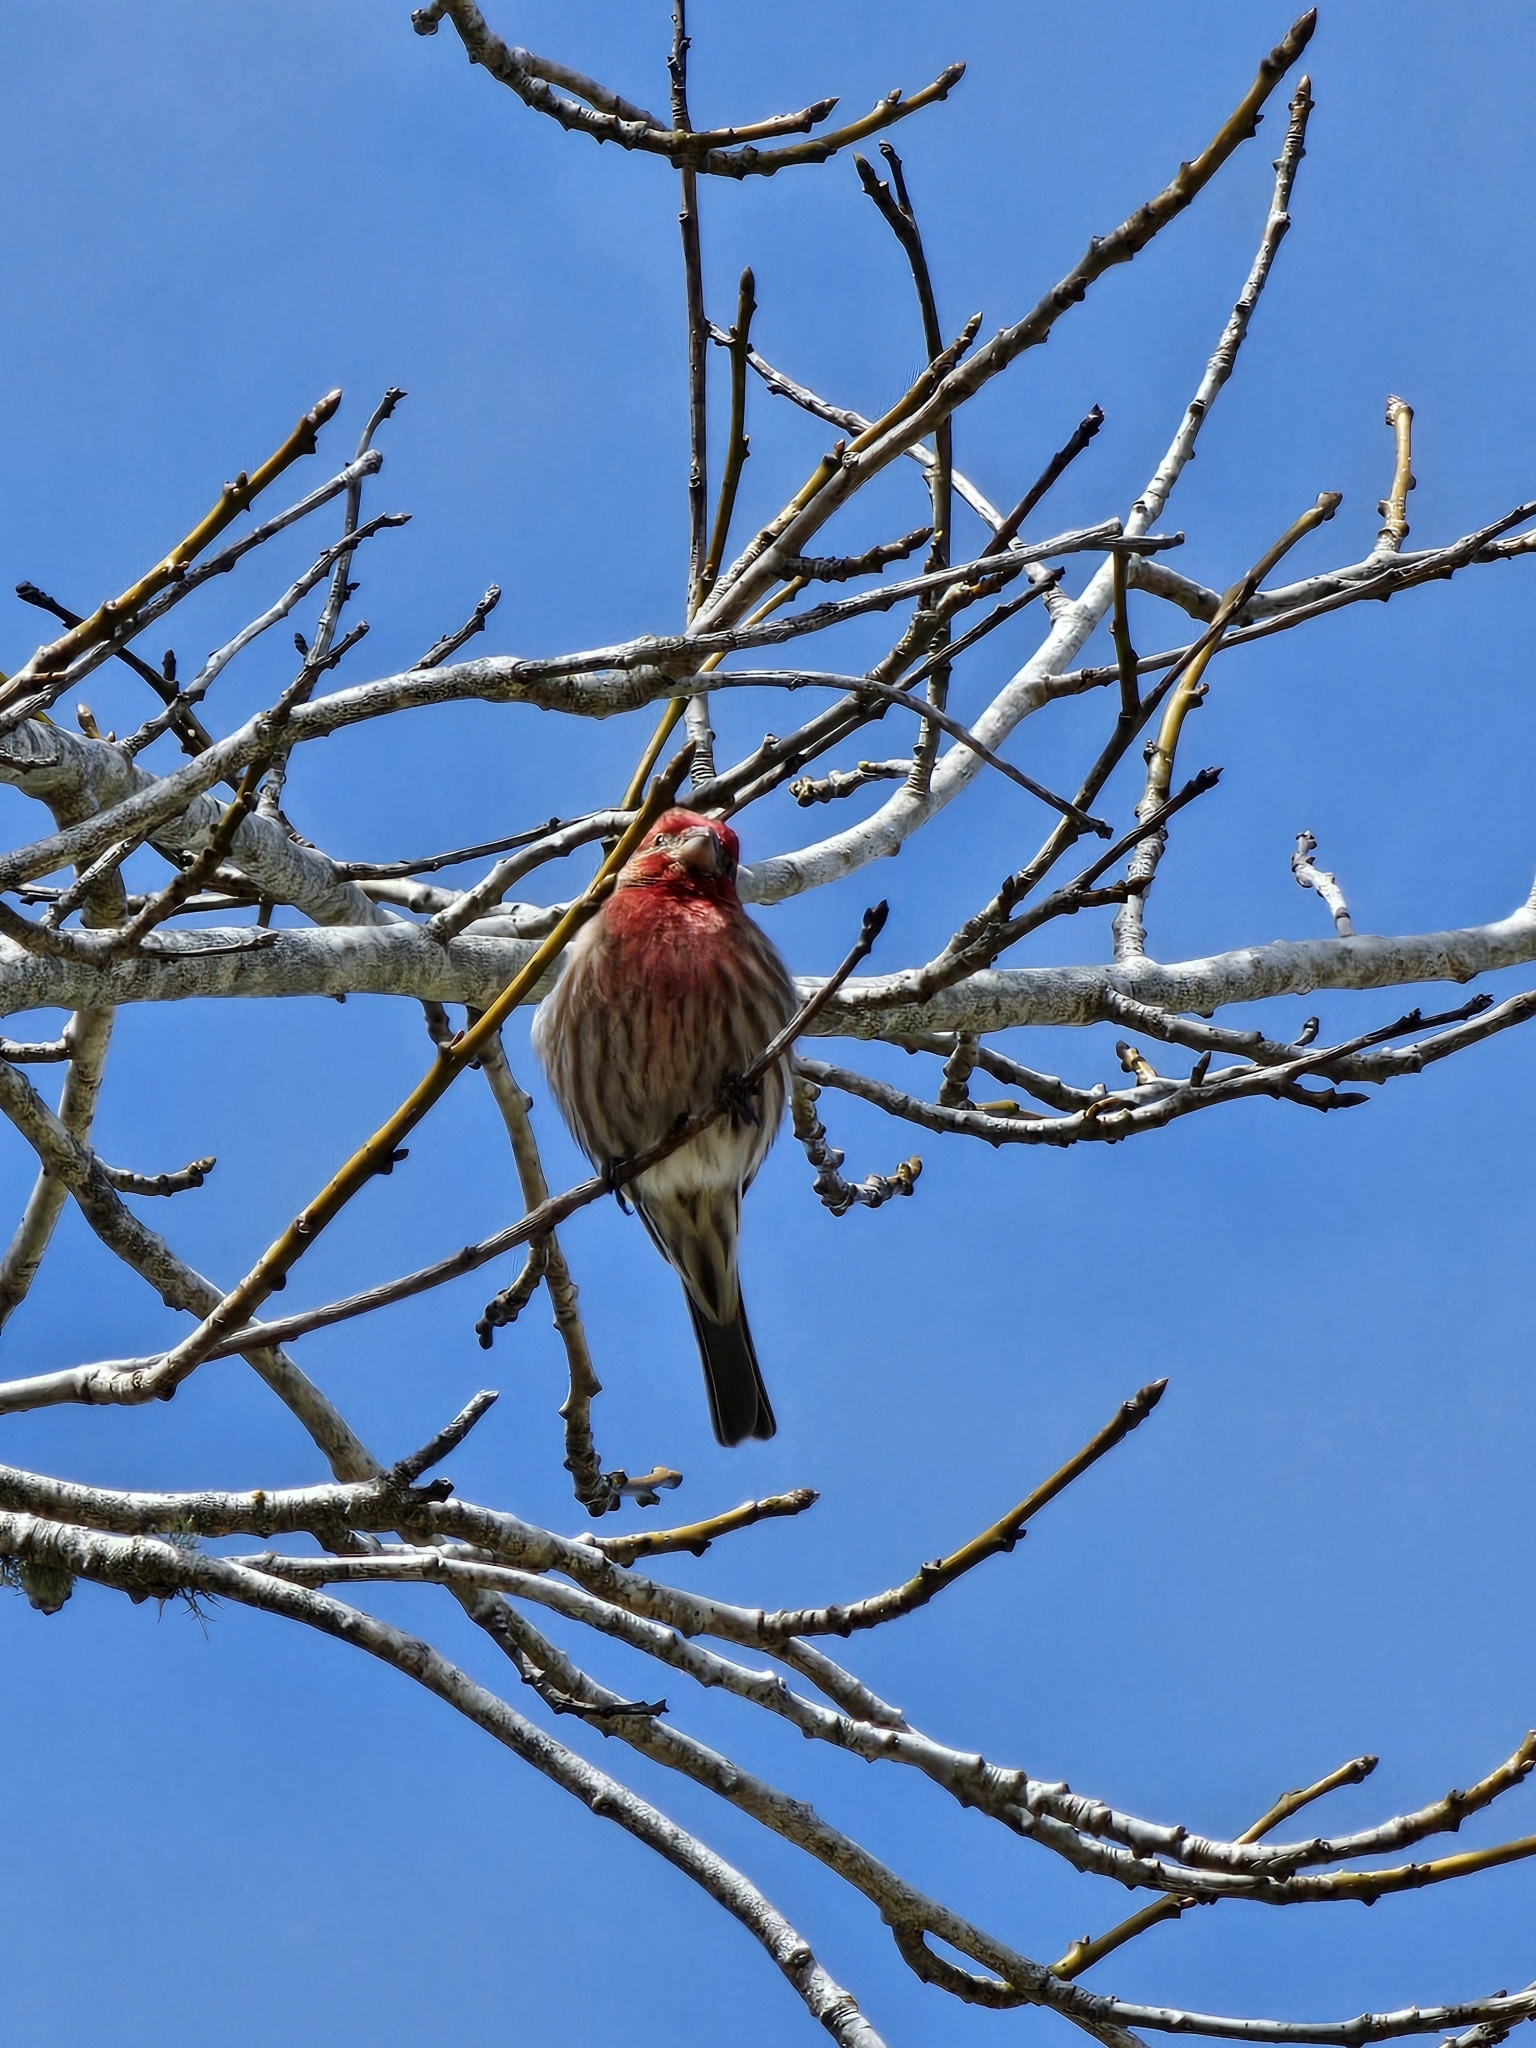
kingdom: Animalia
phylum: Chordata
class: Aves
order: Passeriformes
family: Fringillidae
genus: Haemorhous
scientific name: Haemorhous mexicanus
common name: House finch
